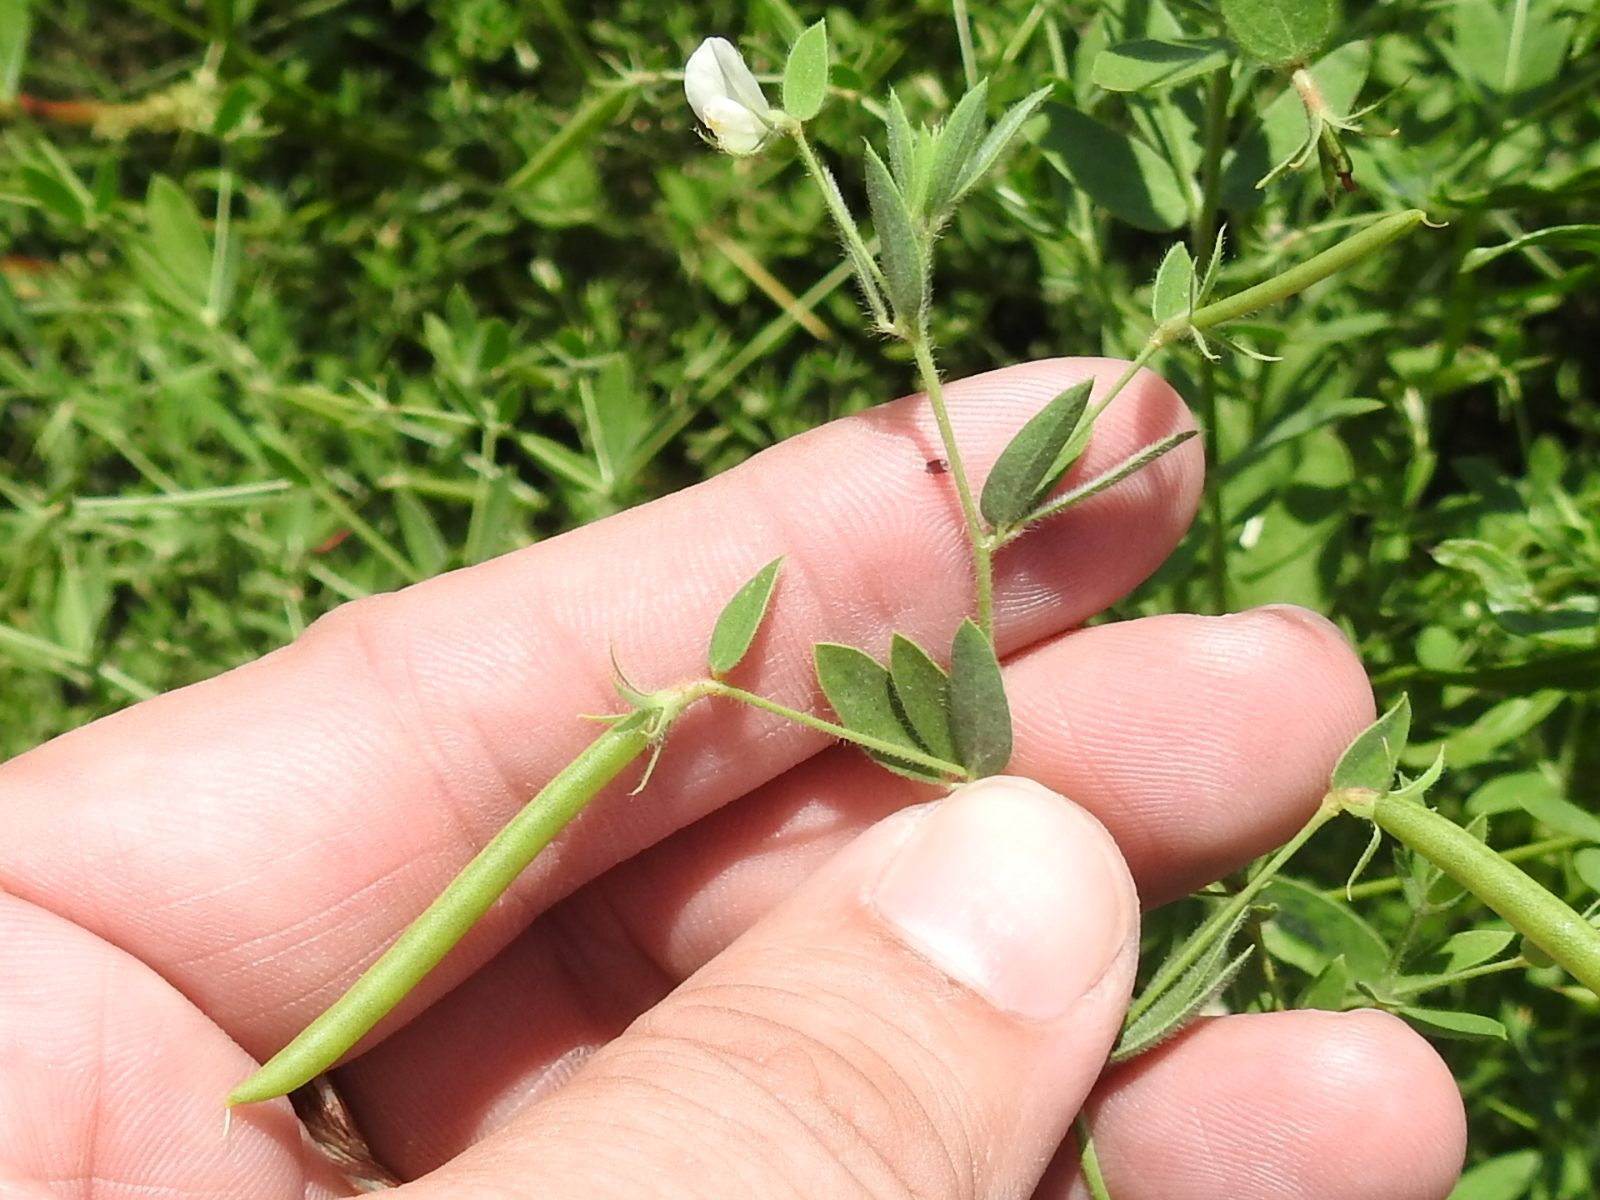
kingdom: Plantae
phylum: Tracheophyta
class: Magnoliopsida
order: Fabales
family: Fabaceae
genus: Acmispon
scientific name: Acmispon americanus
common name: American bird's-foot trefoil
